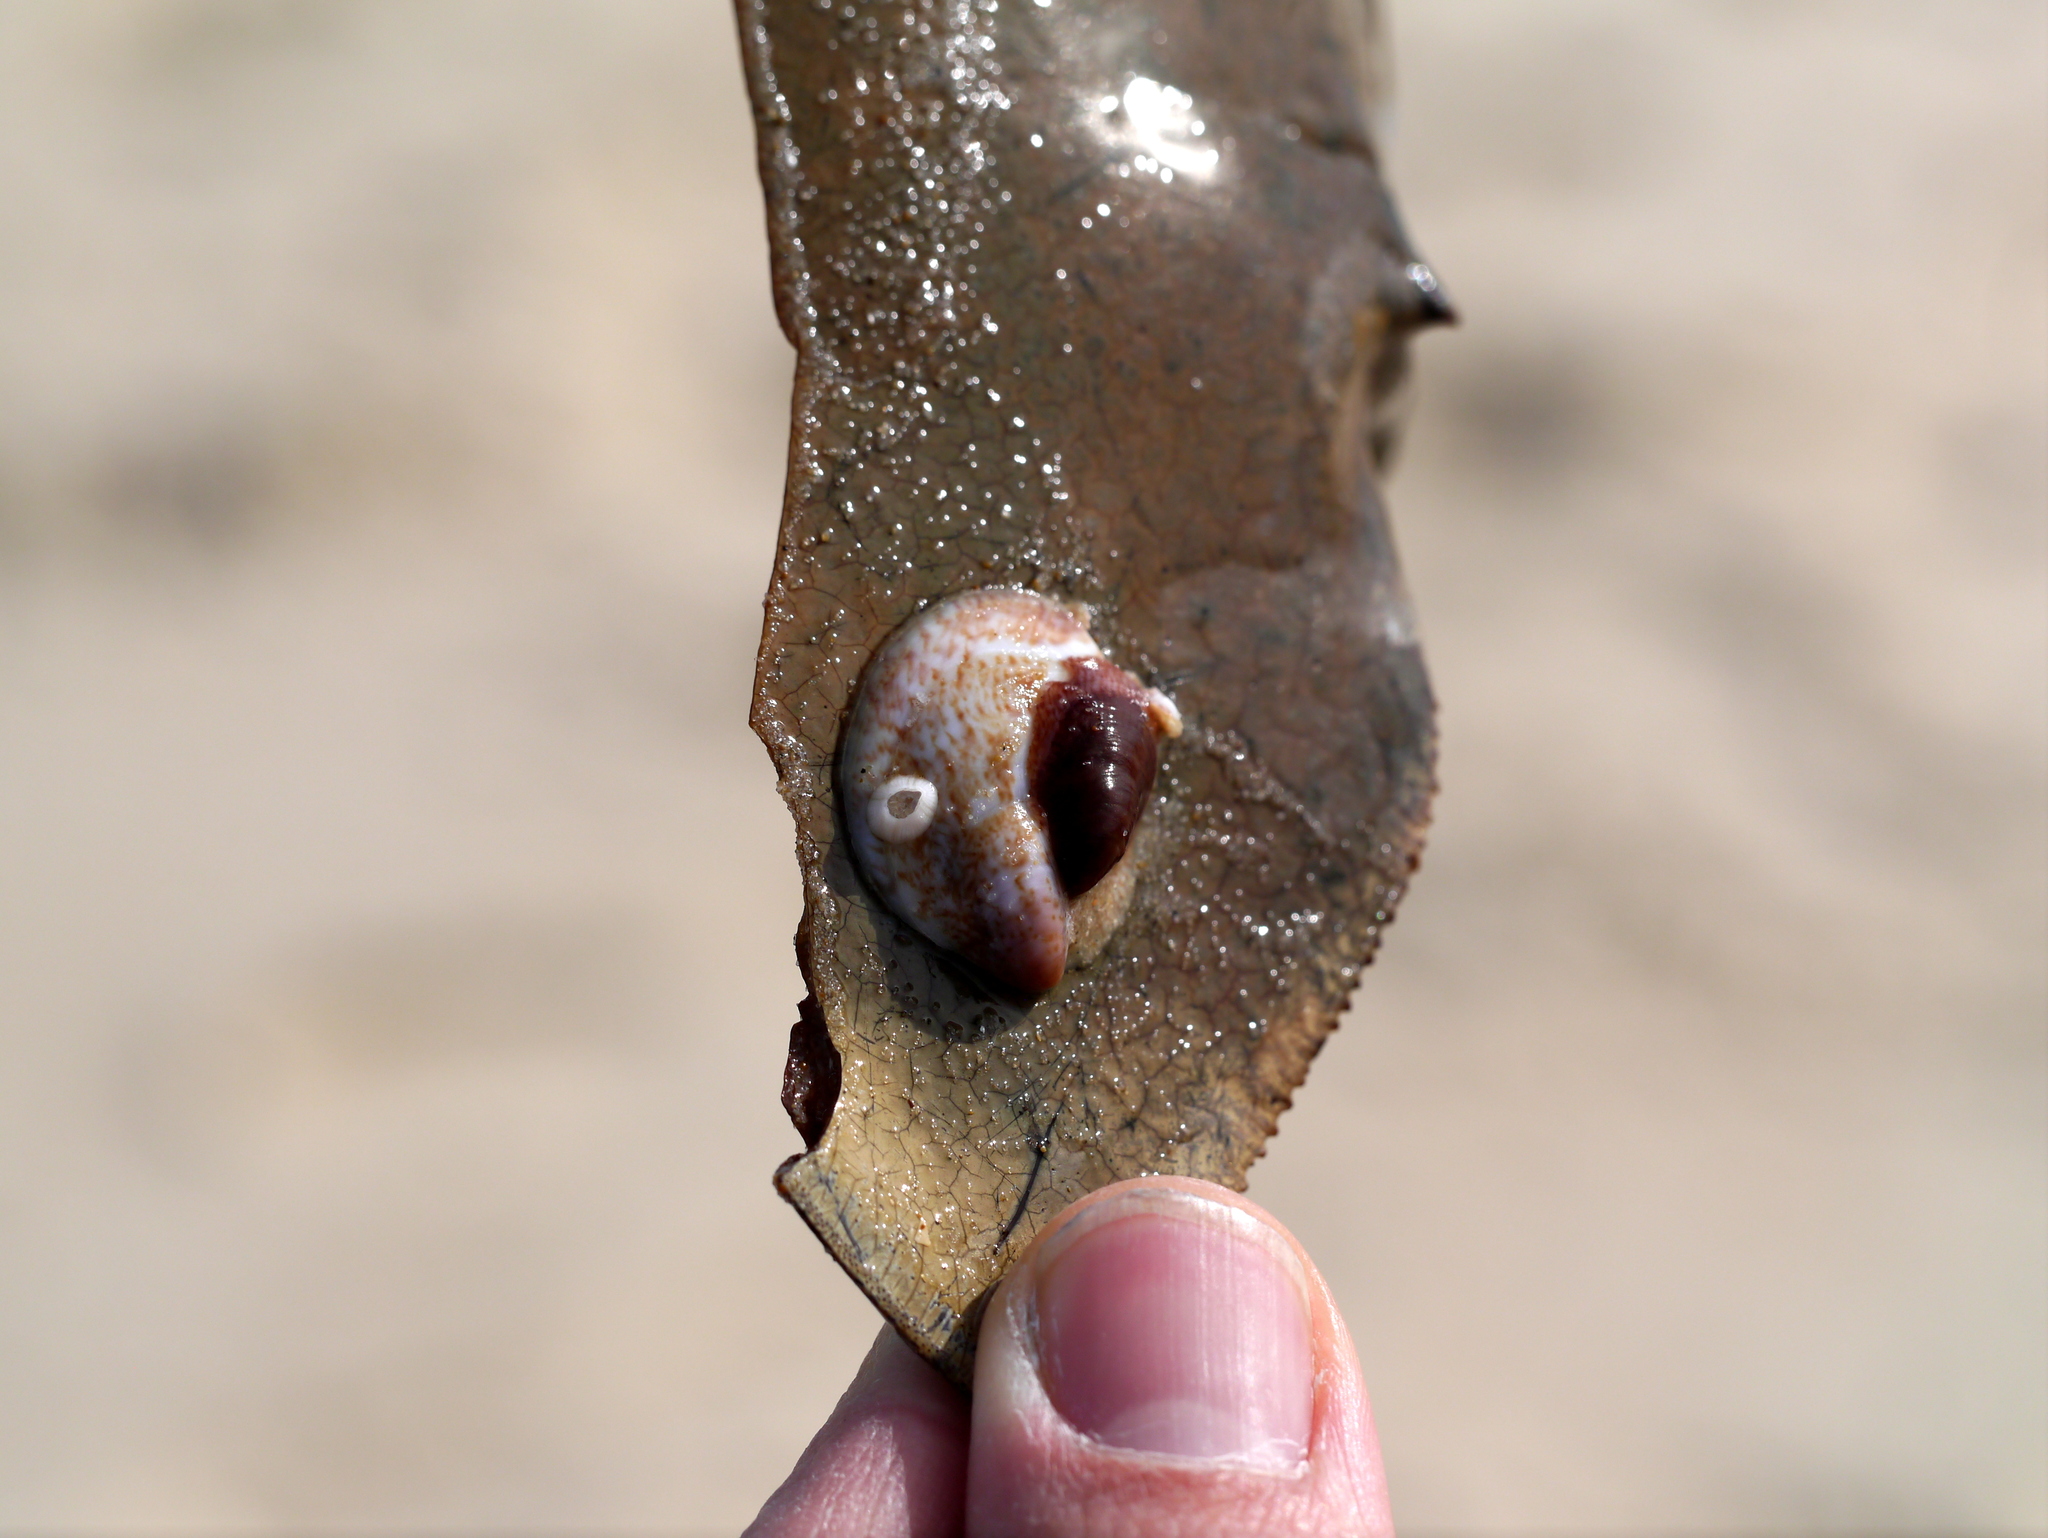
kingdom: Animalia
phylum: Mollusca
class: Gastropoda
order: Littorinimorpha
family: Calyptraeidae
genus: Crepidula
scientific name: Crepidula fornicata
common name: Slipper limpet
